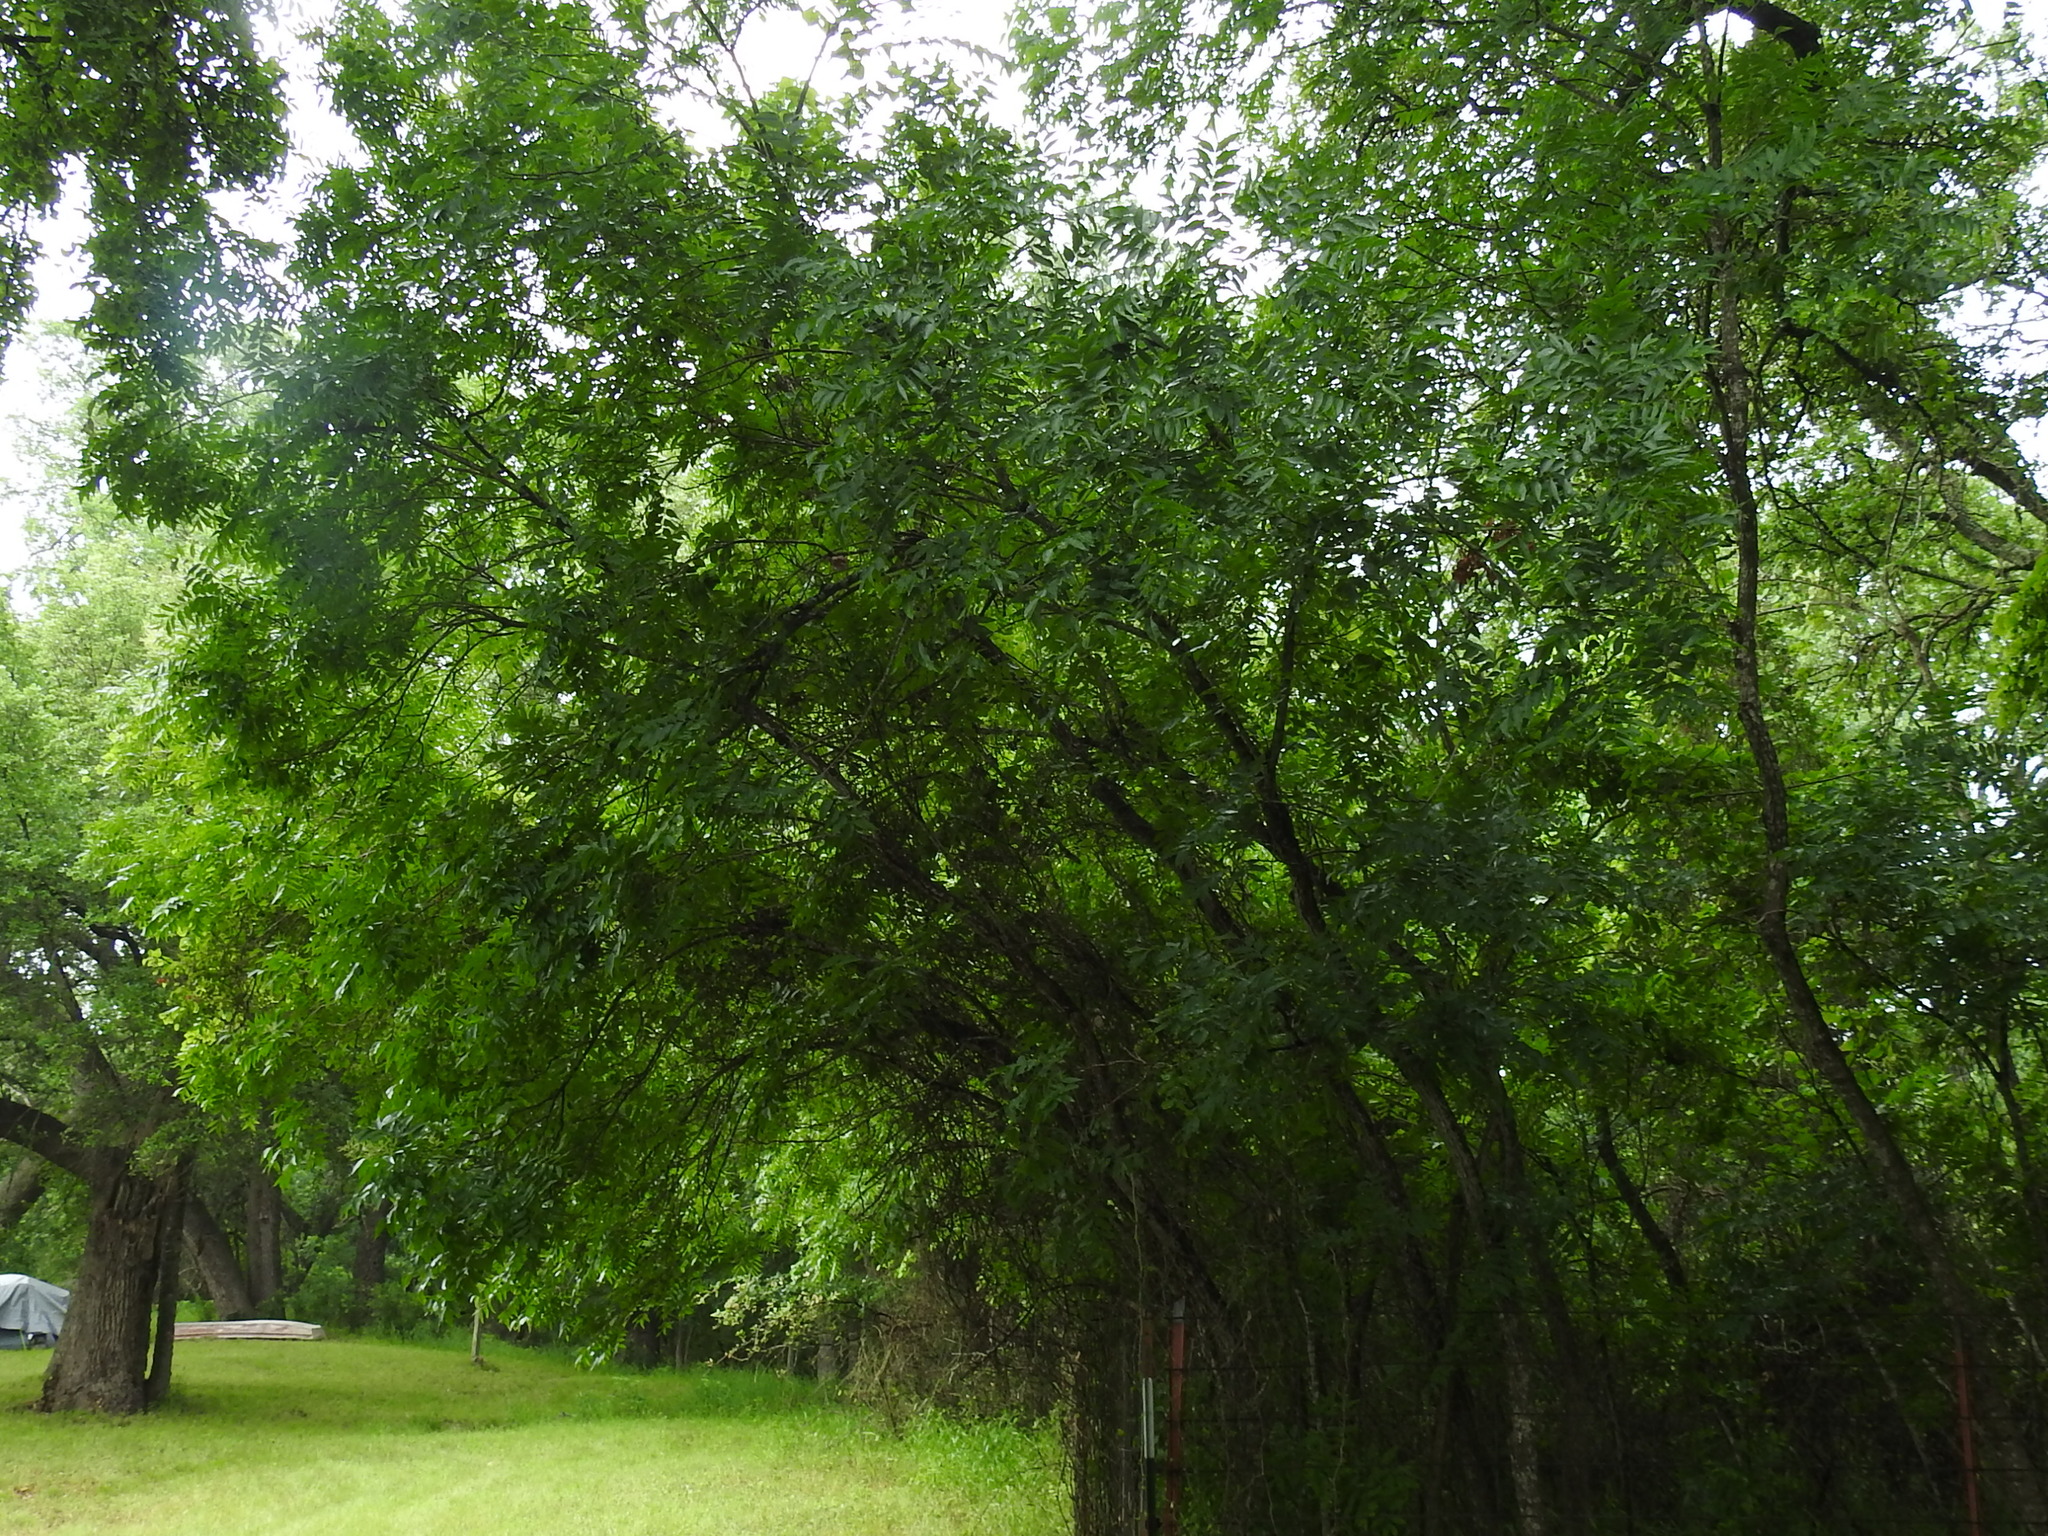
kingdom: Plantae
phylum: Tracheophyta
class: Magnoliopsida
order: Sapindales
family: Sapindaceae
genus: Sapindus
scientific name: Sapindus drummondii
